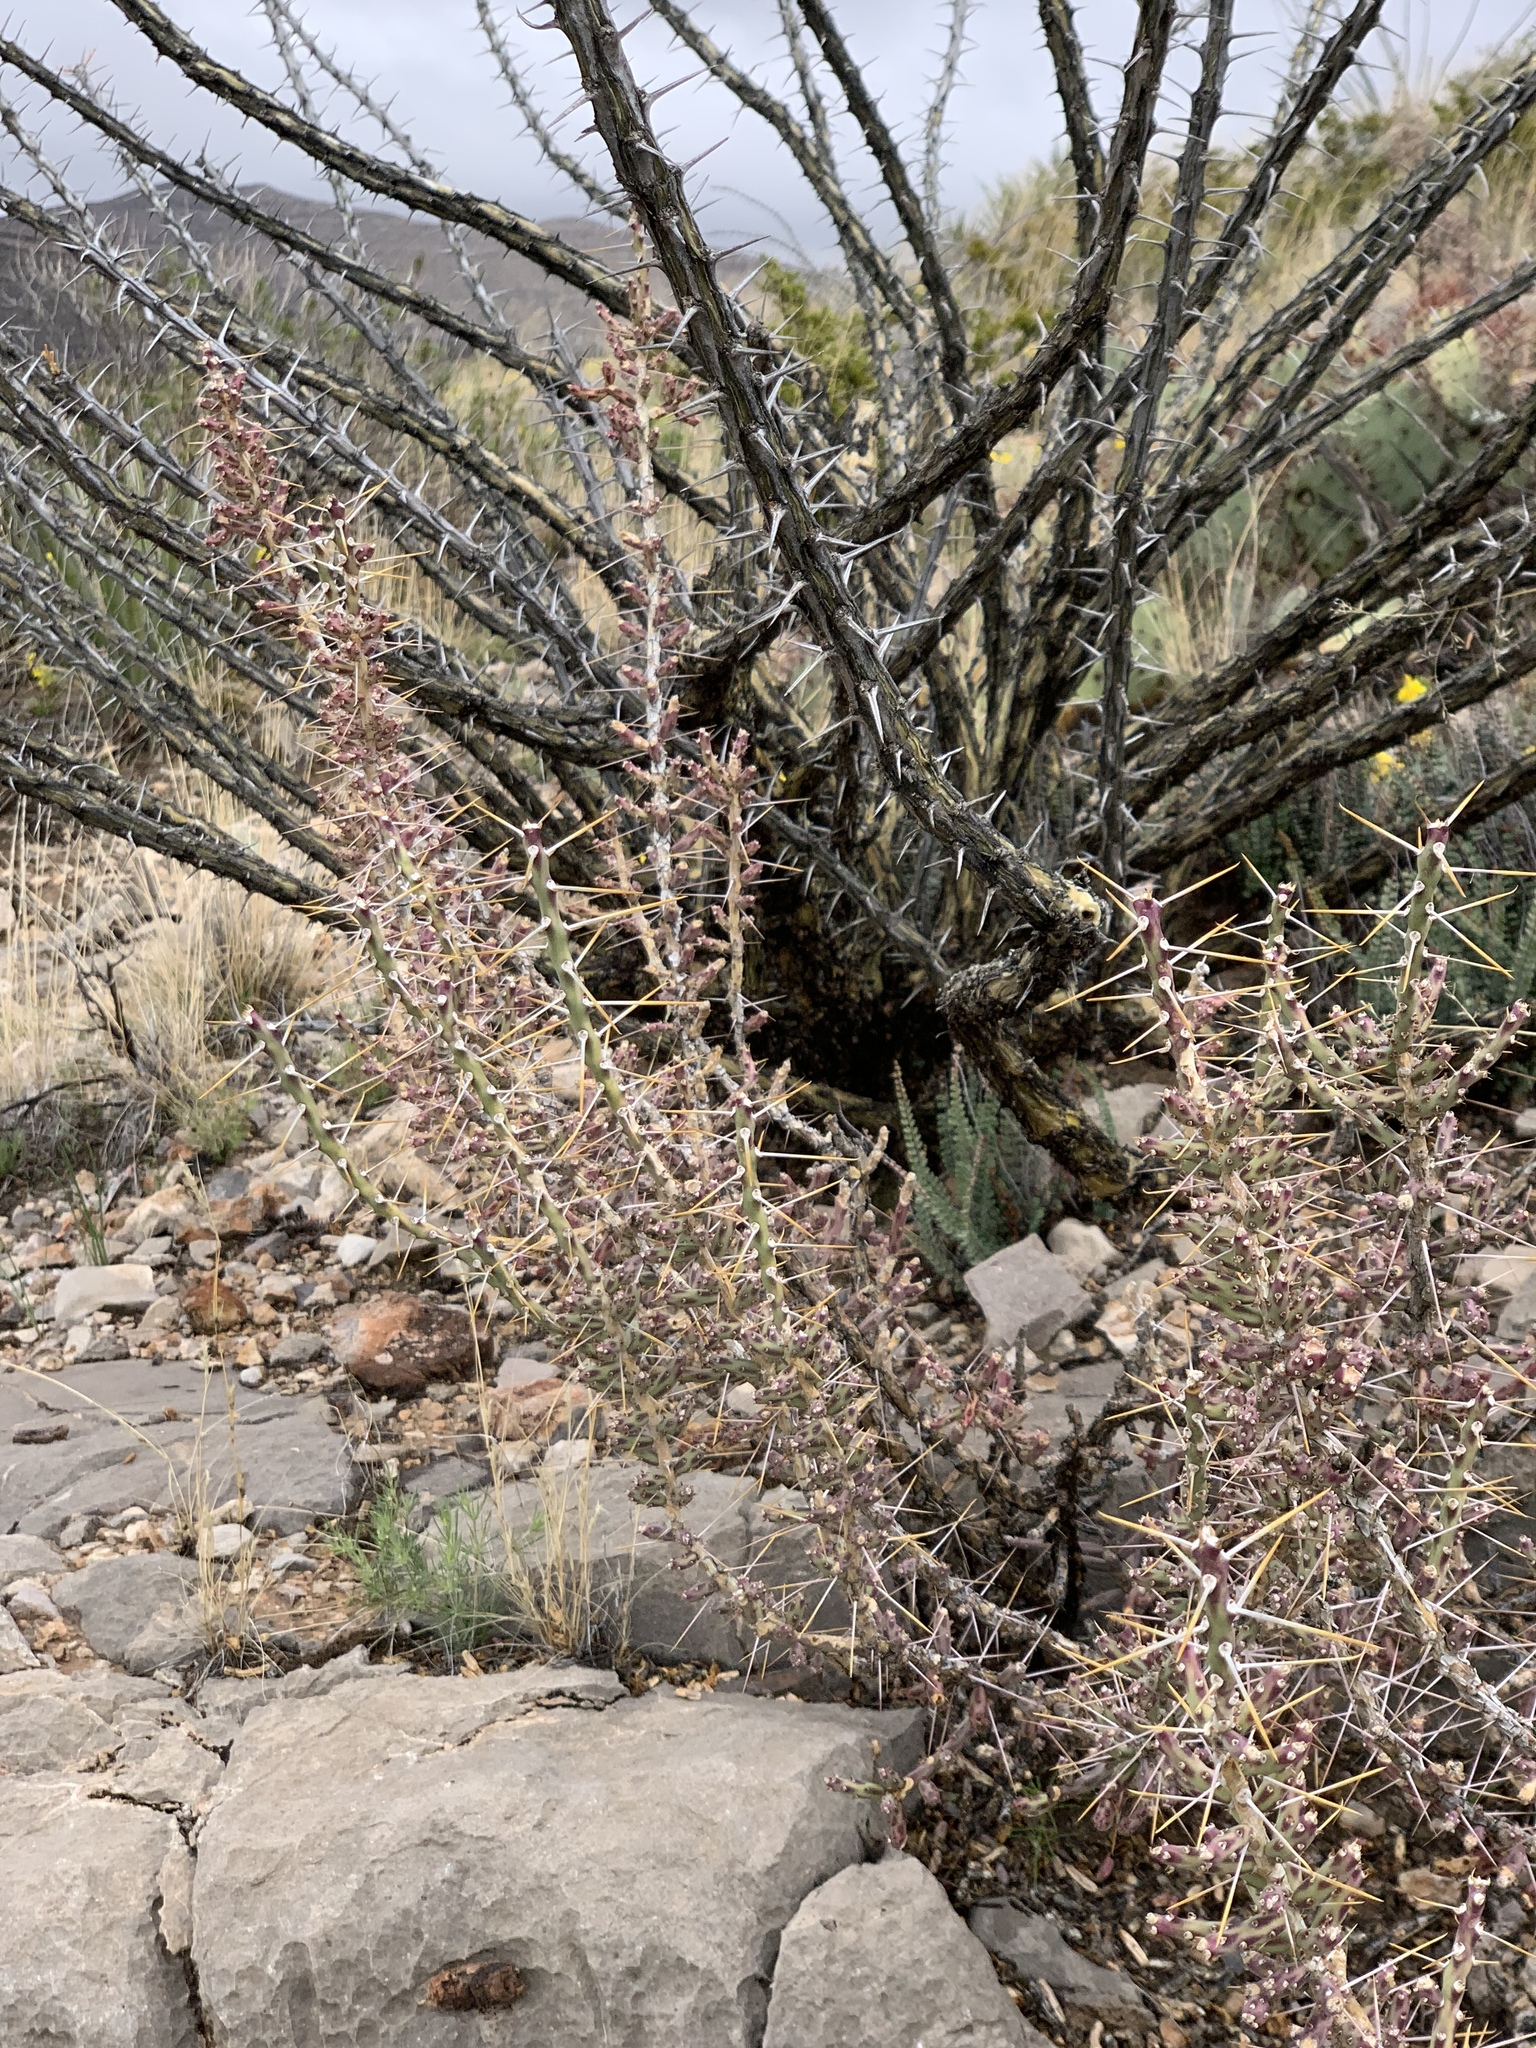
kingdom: Plantae
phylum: Tracheophyta
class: Magnoliopsida
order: Caryophyllales
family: Cactaceae
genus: Cylindropuntia
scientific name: Cylindropuntia leptocaulis
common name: Christmas cactus
